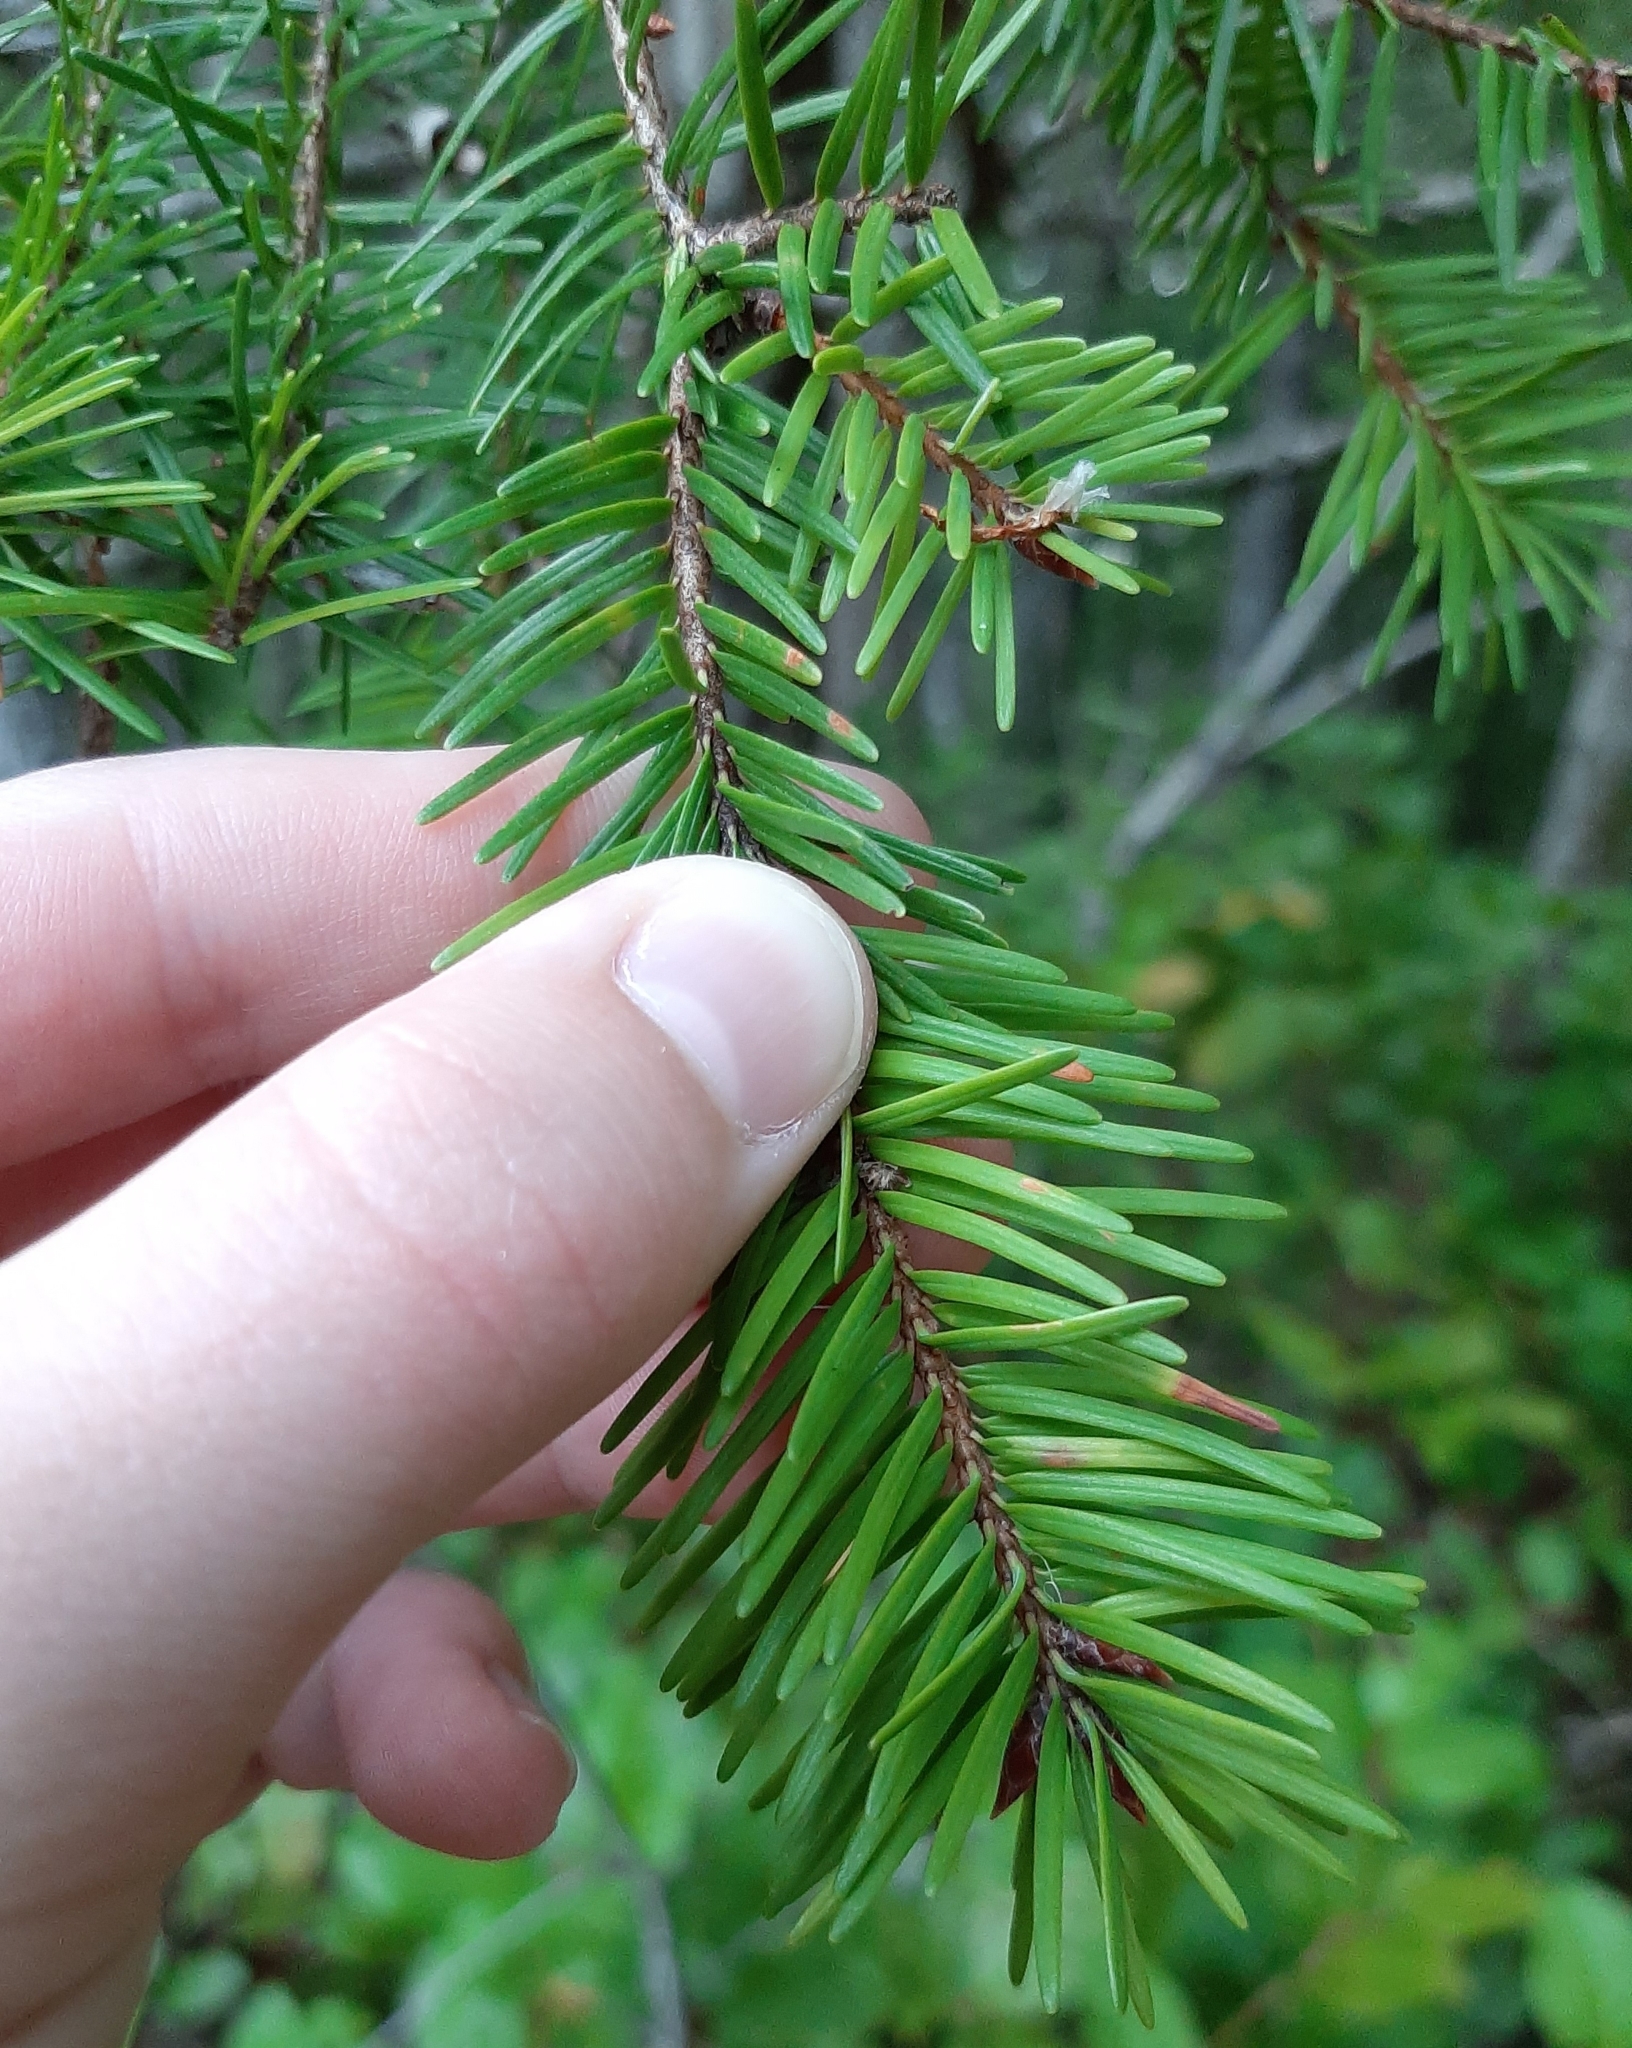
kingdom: Plantae
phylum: Tracheophyta
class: Pinopsida
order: Pinales
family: Pinaceae
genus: Pseudotsuga
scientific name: Pseudotsuga menziesii
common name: Douglas fir
